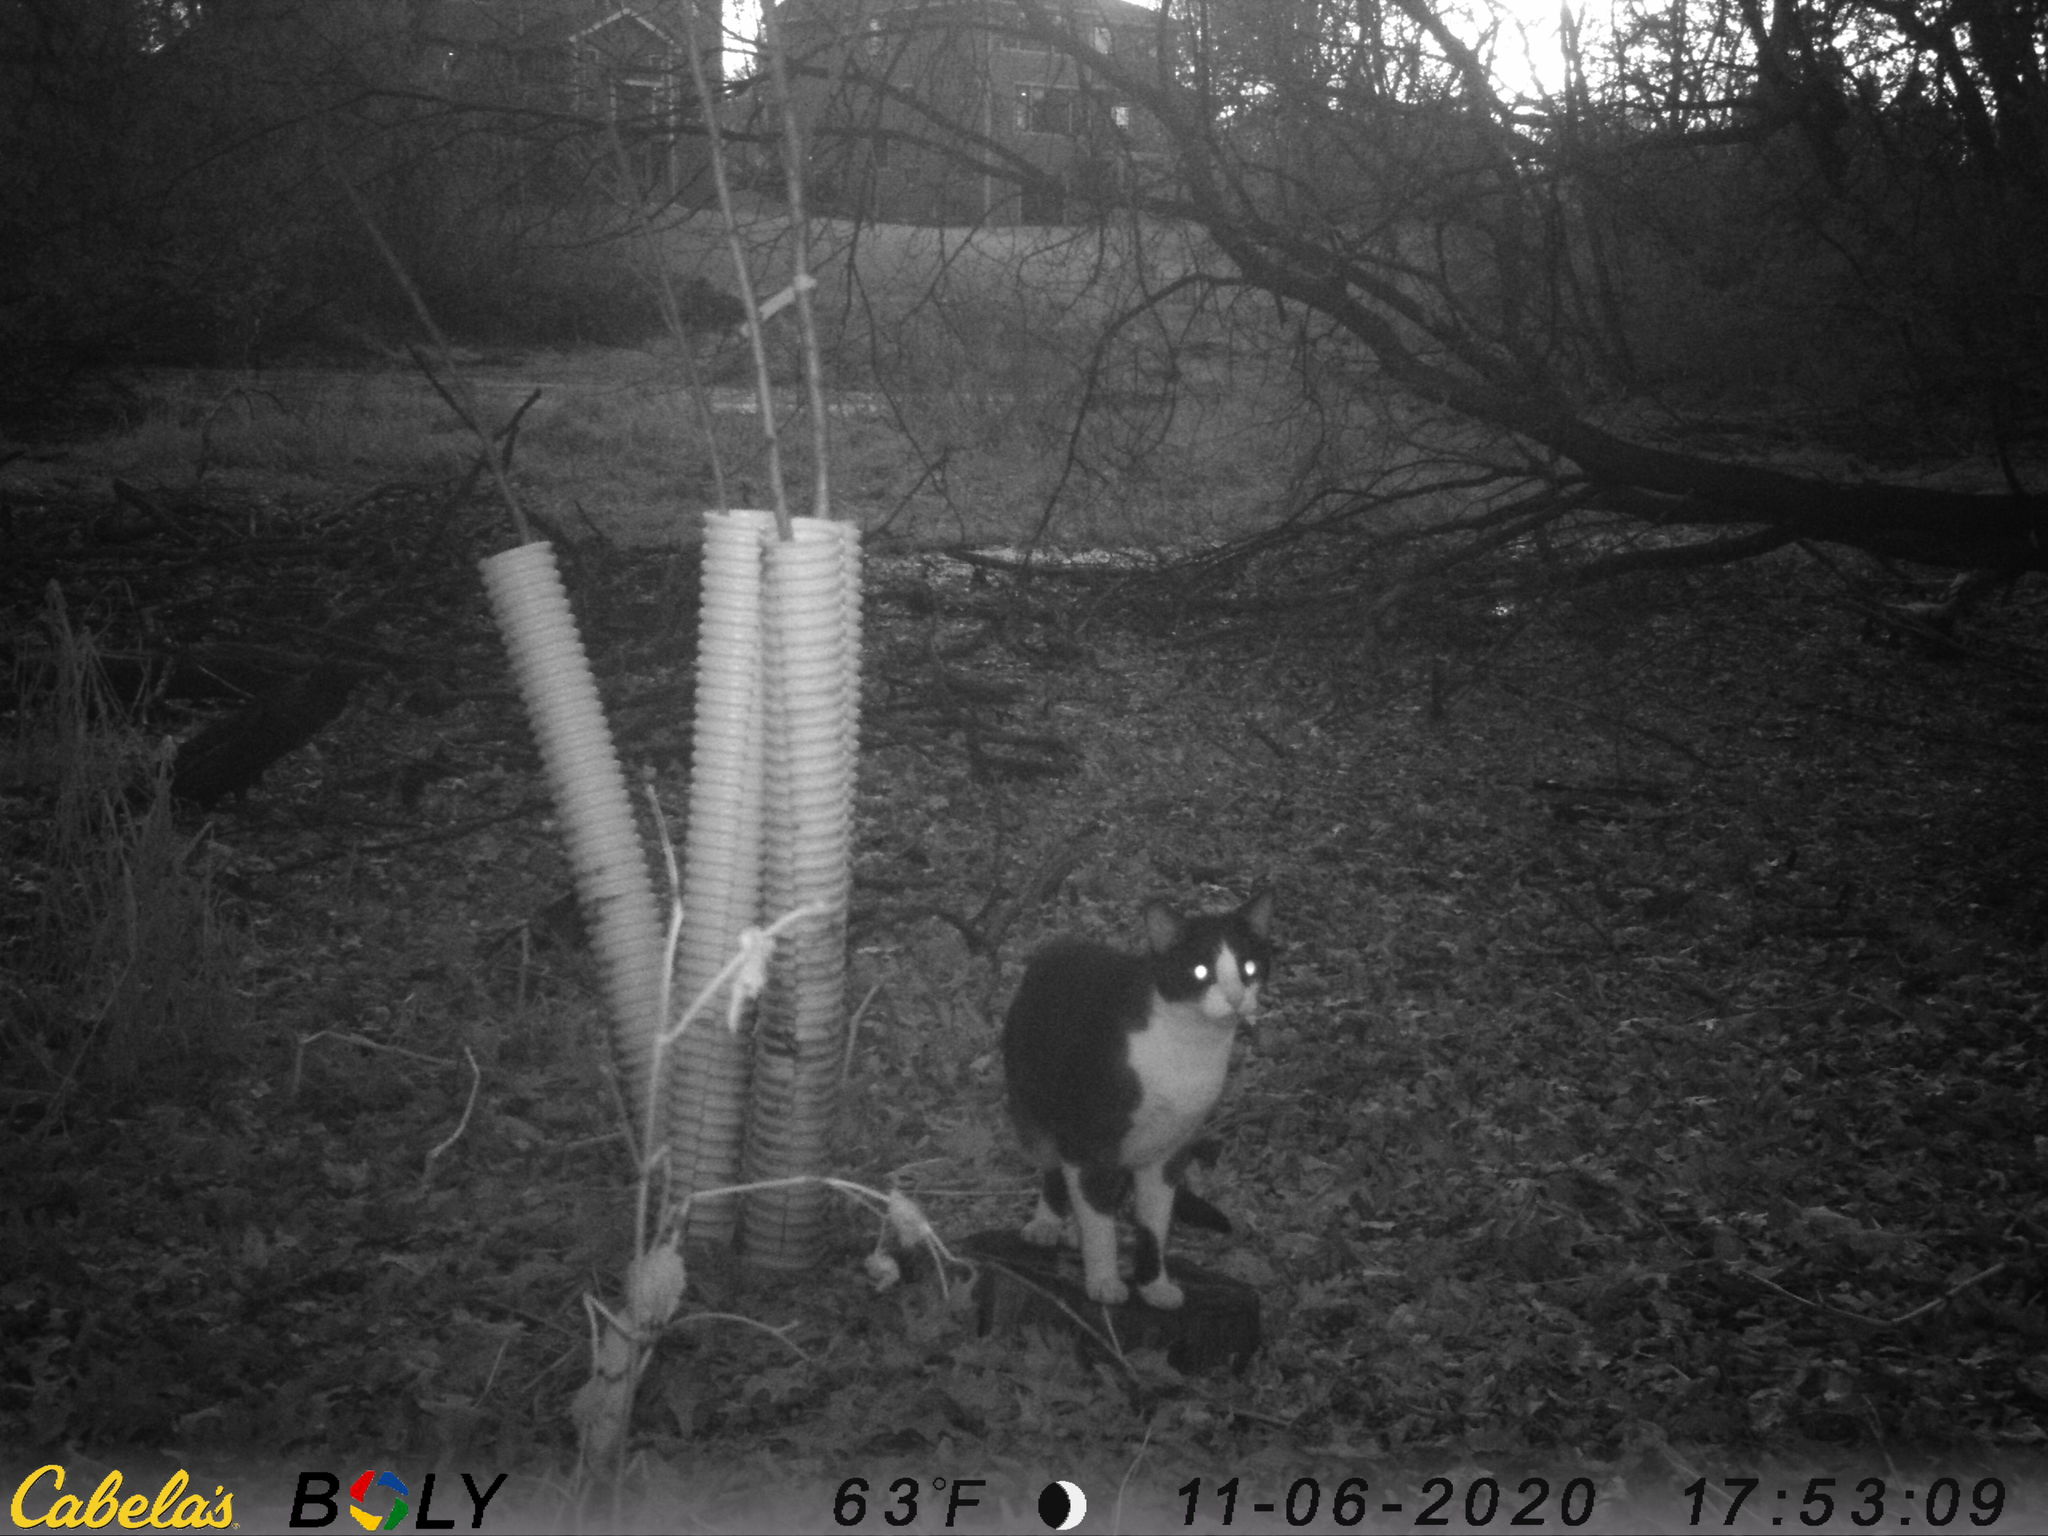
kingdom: Animalia
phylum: Chordata
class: Mammalia
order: Carnivora
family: Felidae
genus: Felis
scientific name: Felis catus
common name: Domestic cat
